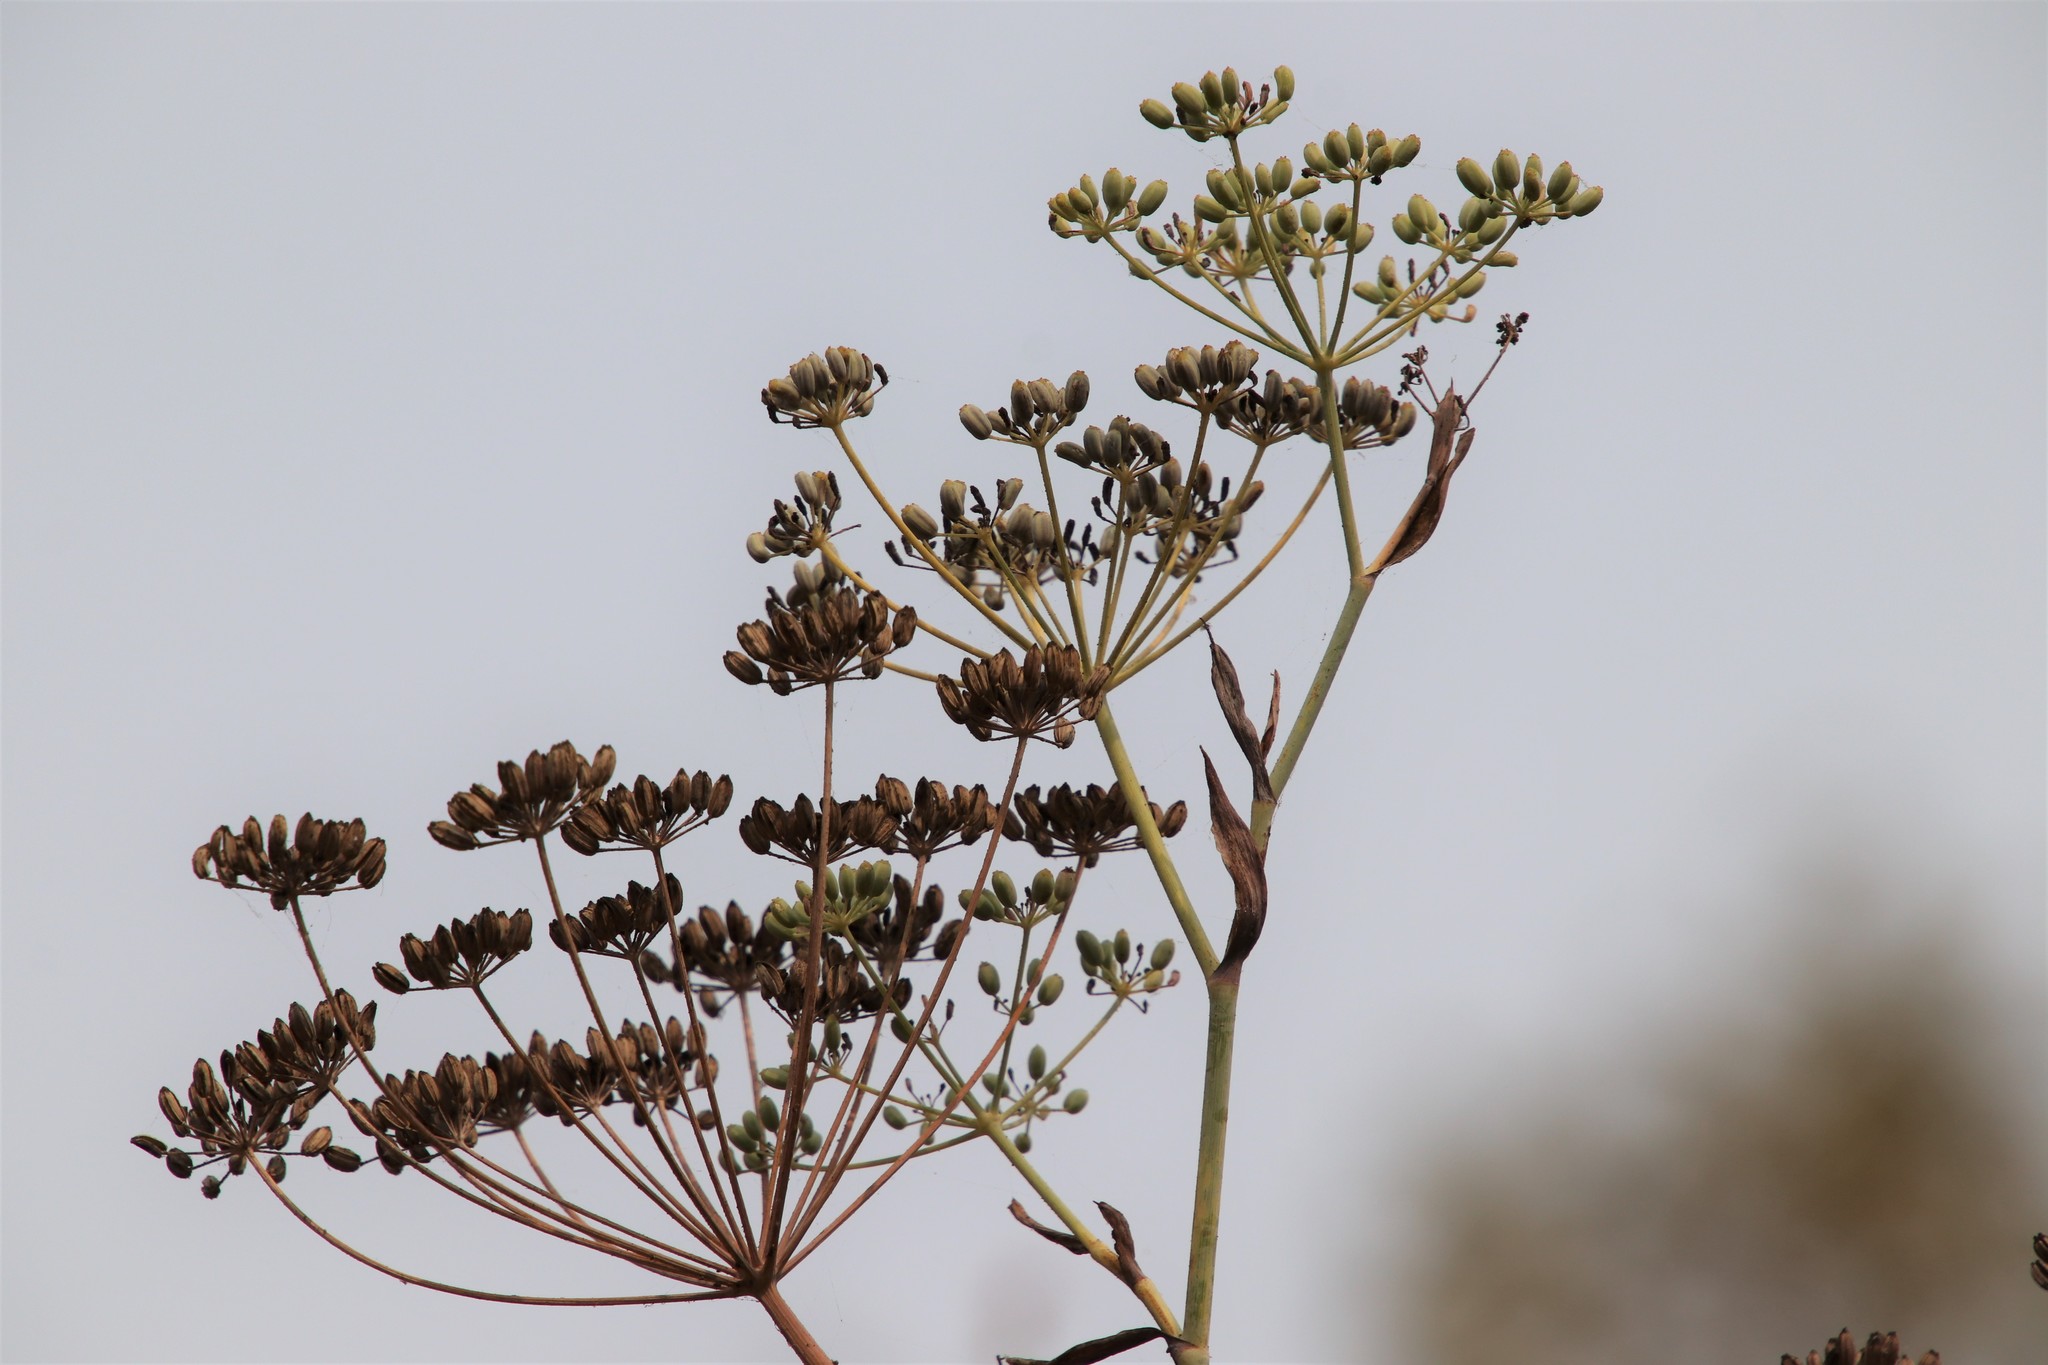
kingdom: Plantae
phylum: Tracheophyta
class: Magnoliopsida
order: Apiales
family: Apiaceae
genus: Foeniculum
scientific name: Foeniculum vulgare
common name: Fennel
